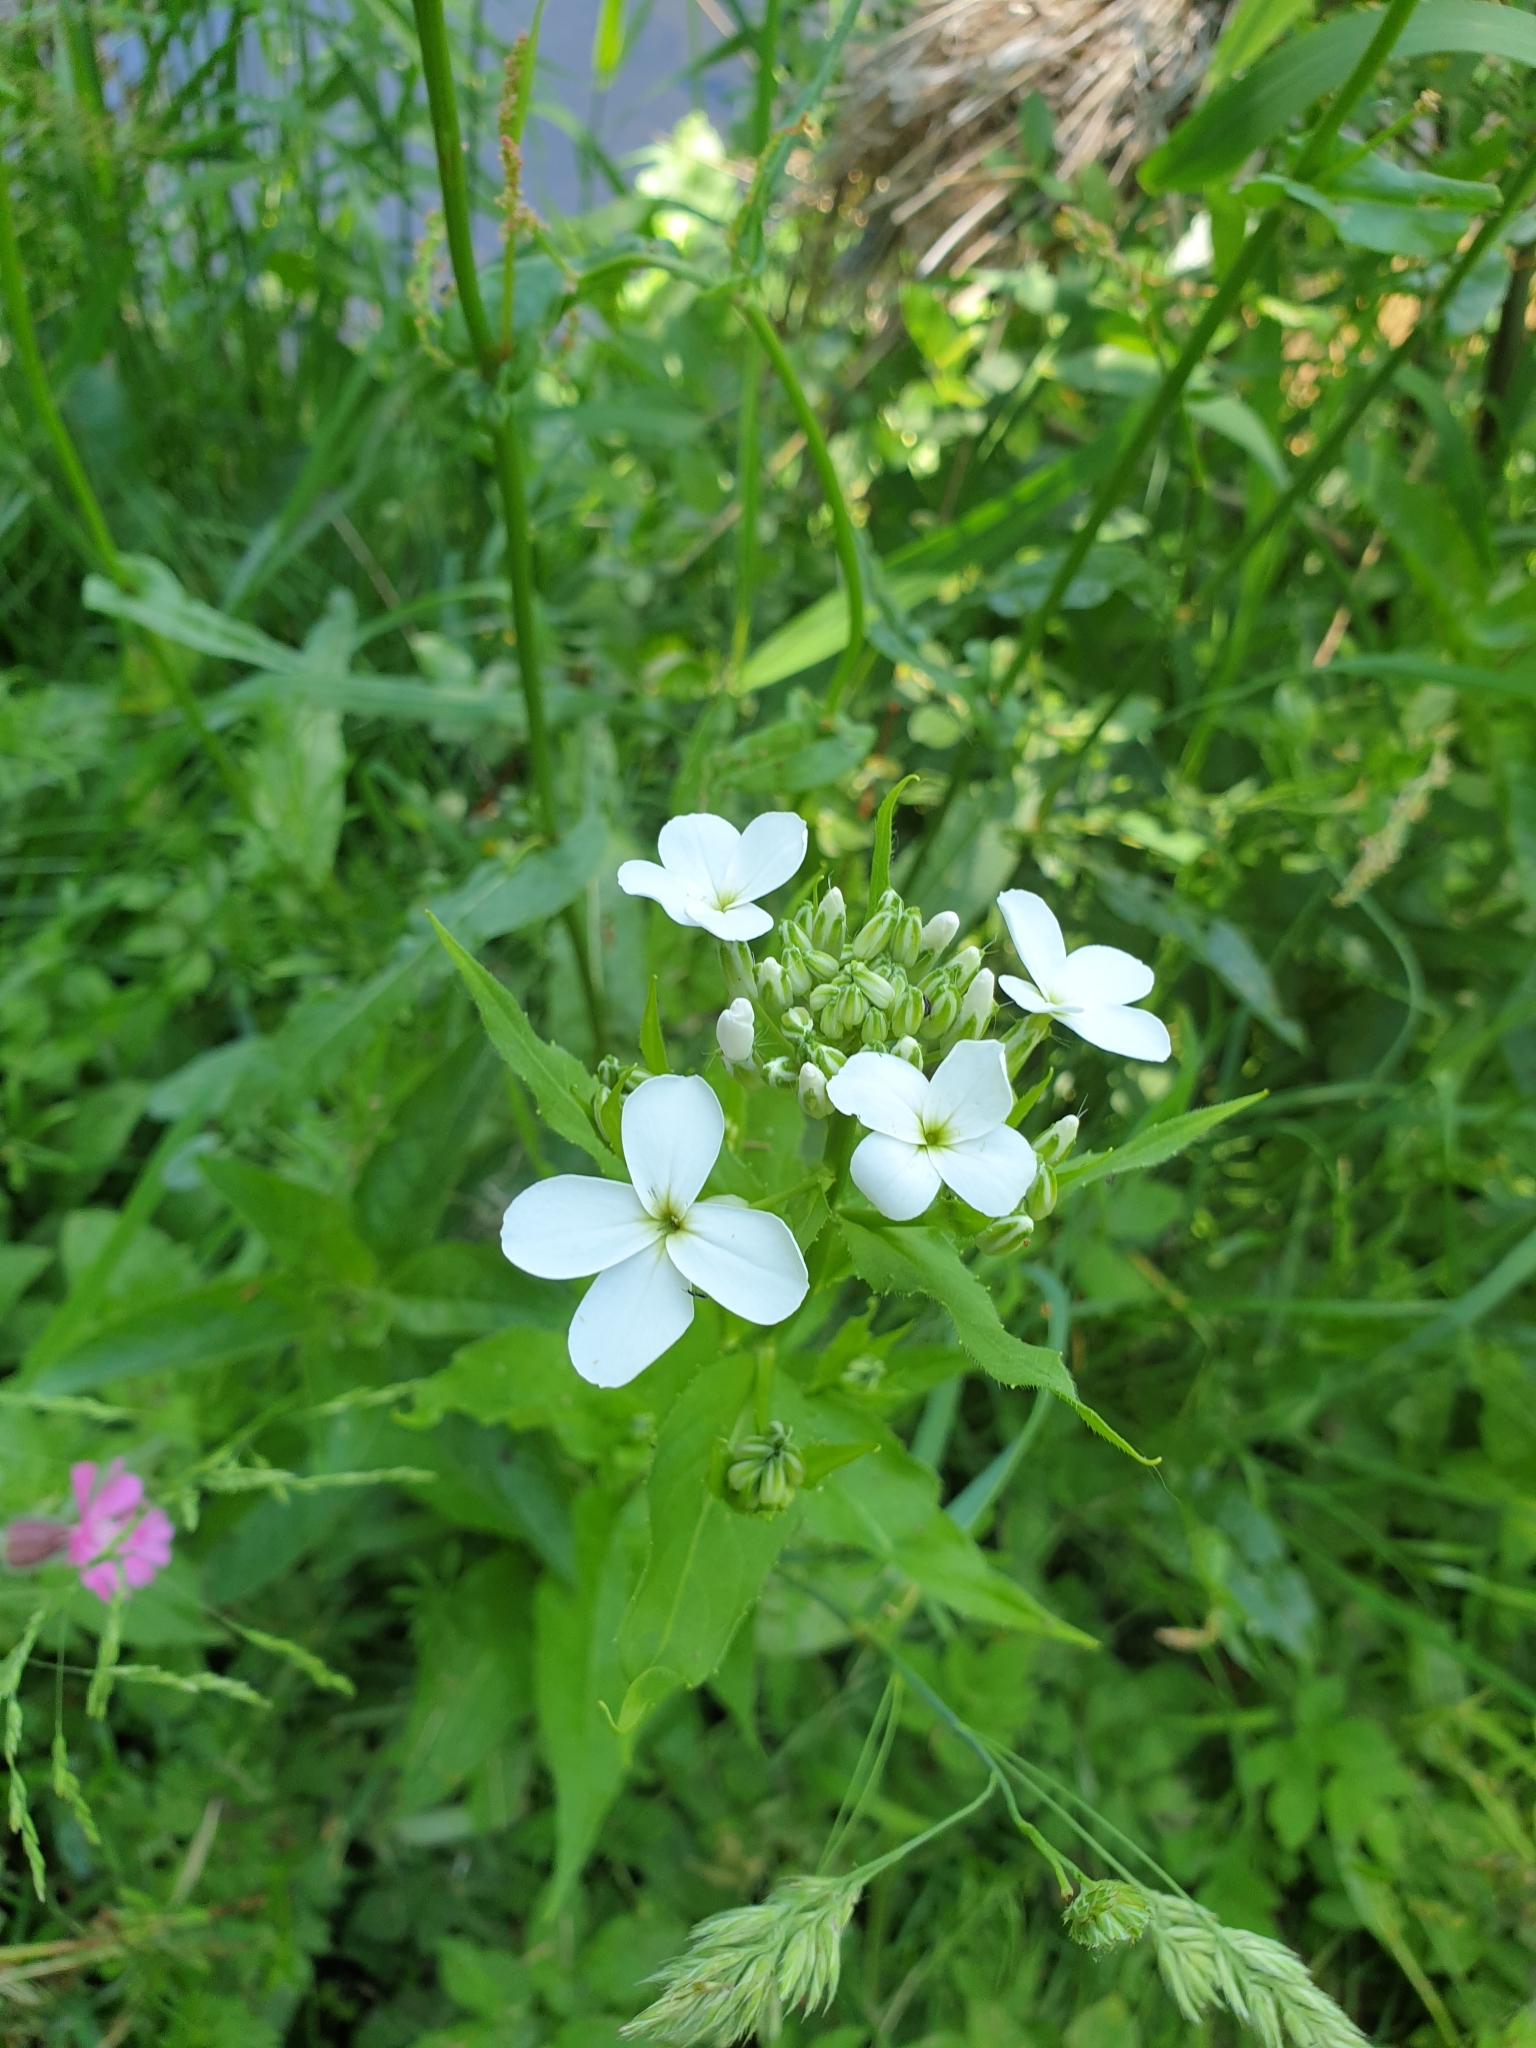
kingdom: Plantae
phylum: Tracheophyta
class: Magnoliopsida
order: Brassicales
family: Brassicaceae
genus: Hesperis
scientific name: Hesperis matronalis
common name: Dame's-violet
